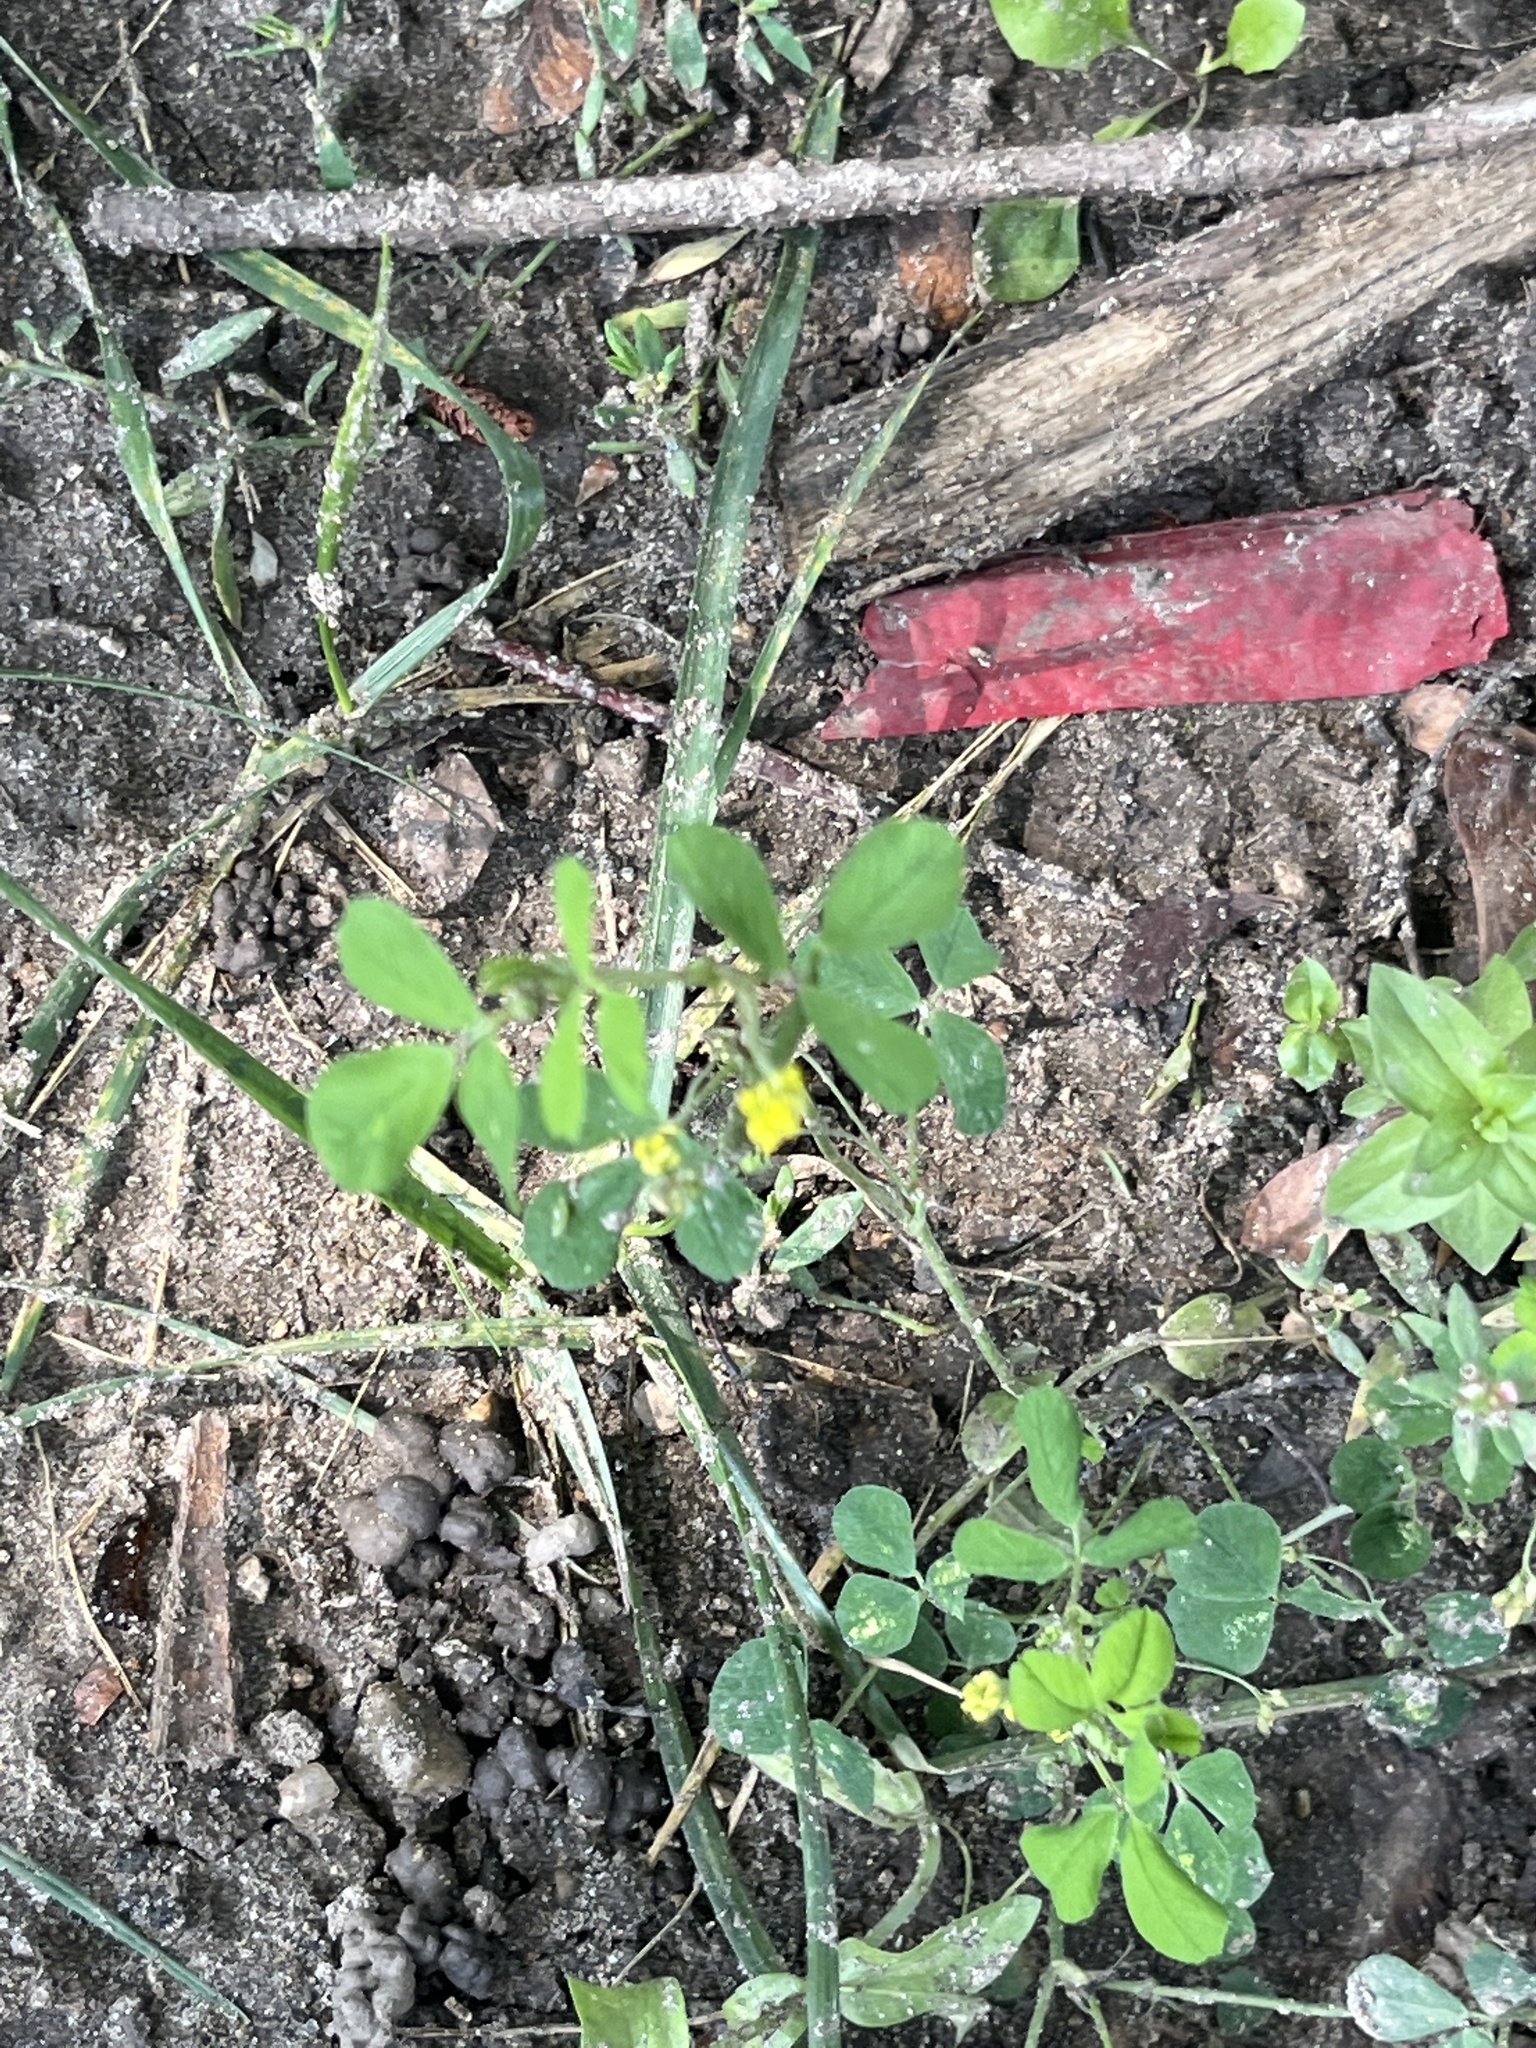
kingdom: Plantae
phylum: Tracheophyta
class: Magnoliopsida
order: Fabales
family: Fabaceae
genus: Medicago
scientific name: Medicago lupulina
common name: Black medick
